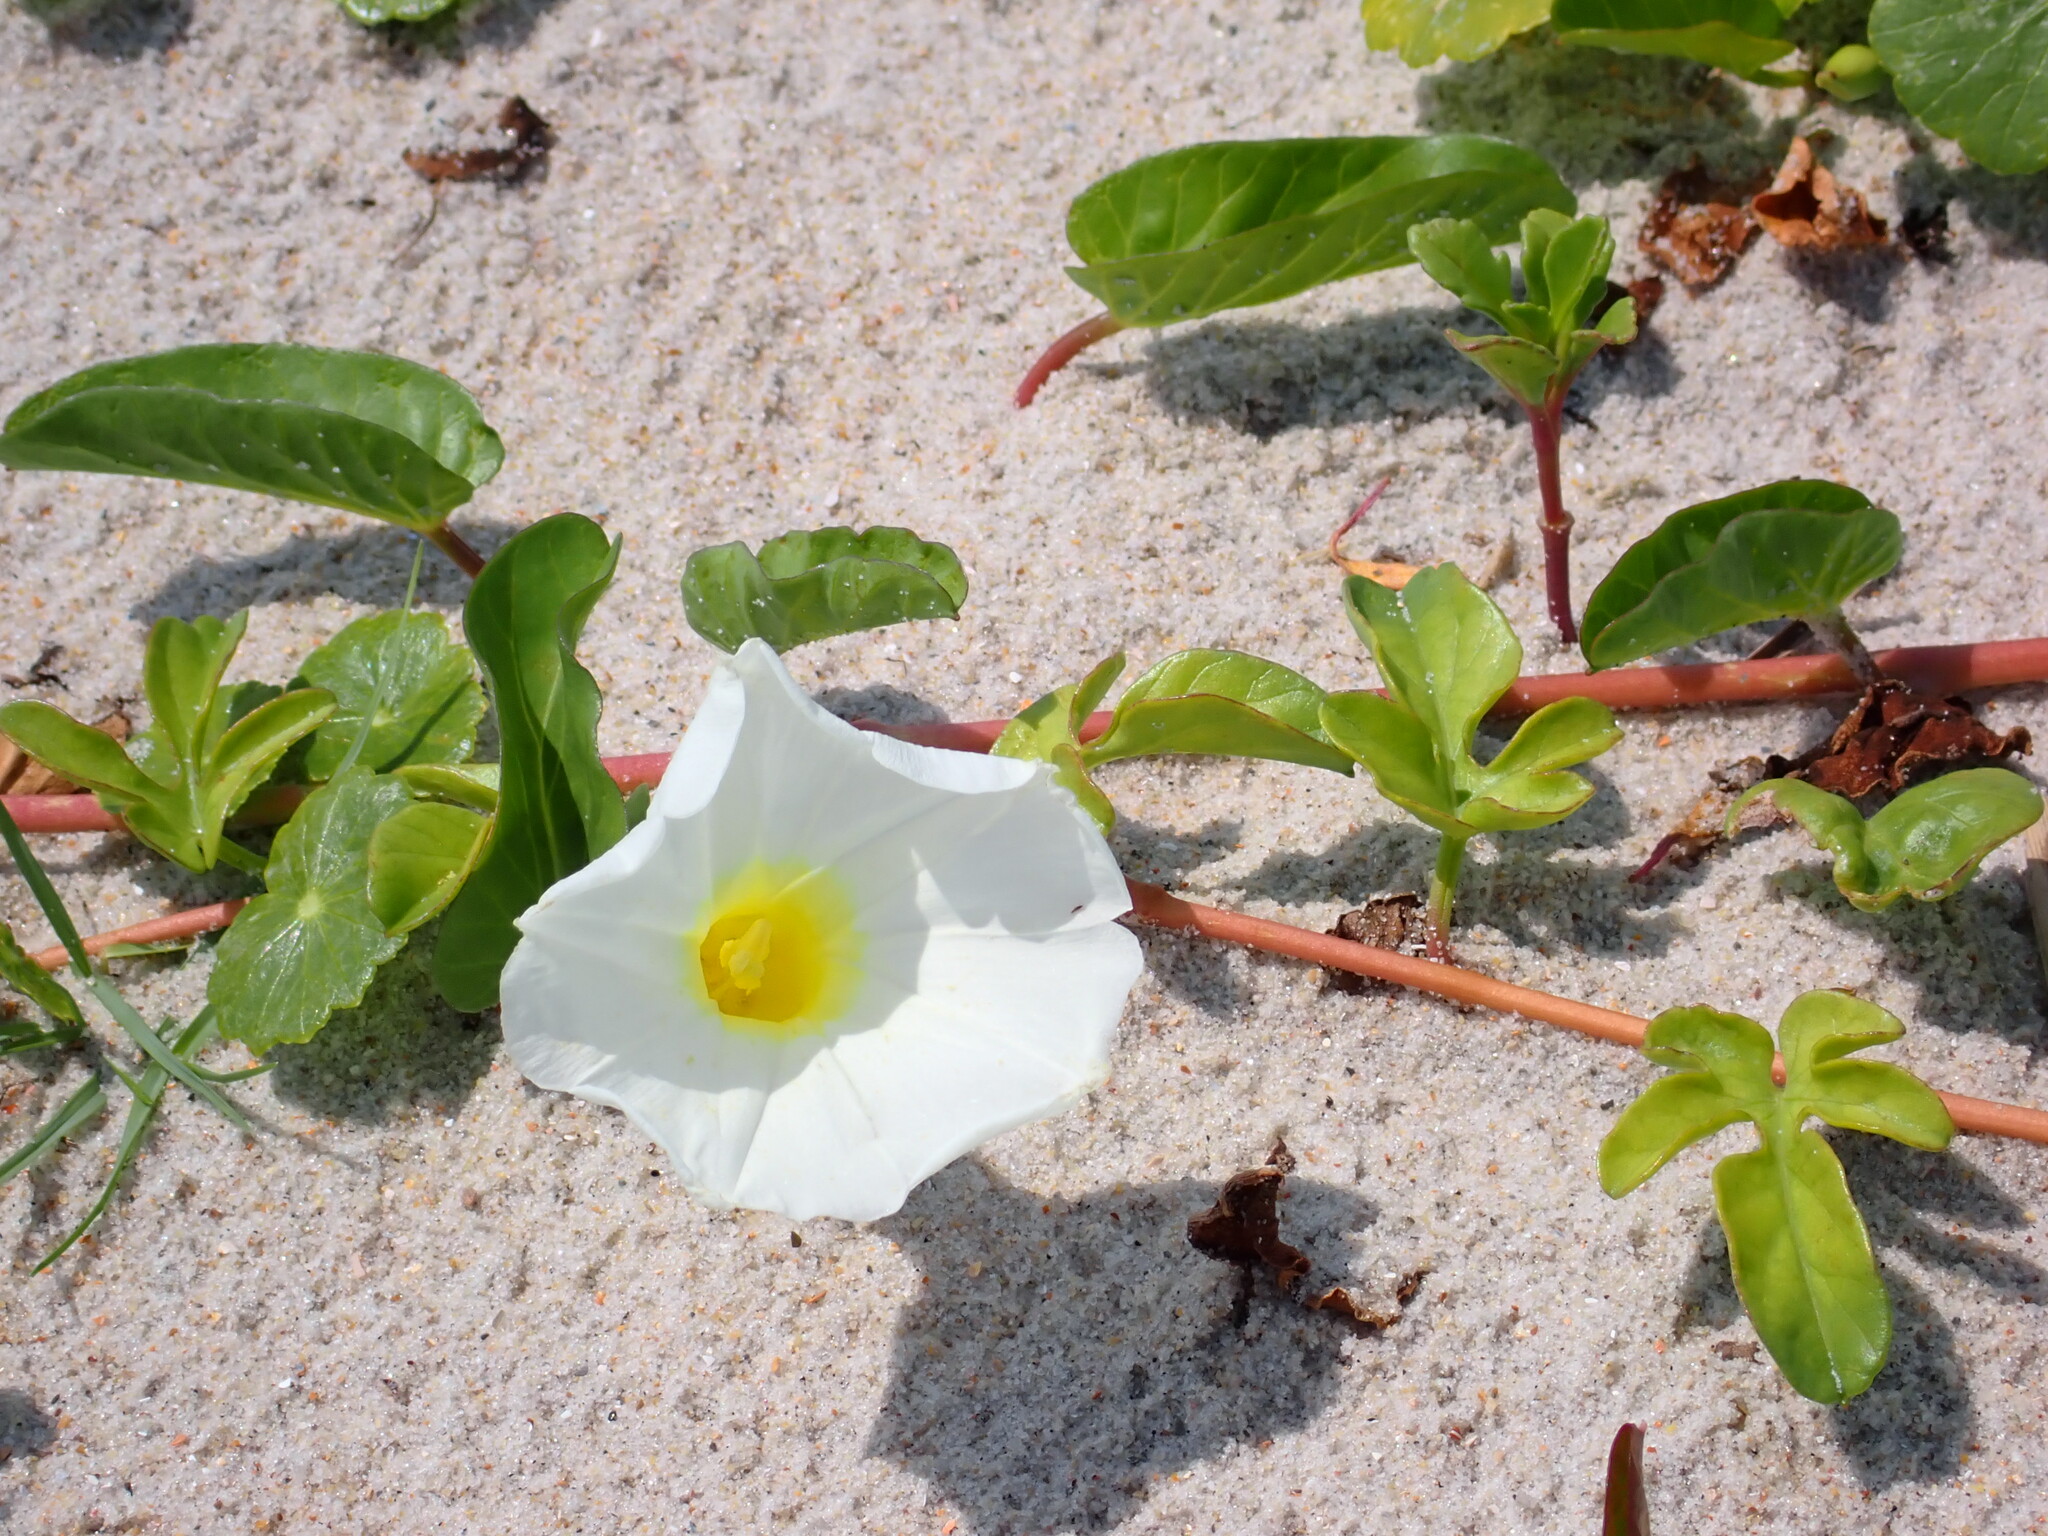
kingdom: Plantae
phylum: Tracheophyta
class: Magnoliopsida
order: Solanales
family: Convolvulaceae
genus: Ipomoea
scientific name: Ipomoea imperati
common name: Fiddle-leaf morning-glory
